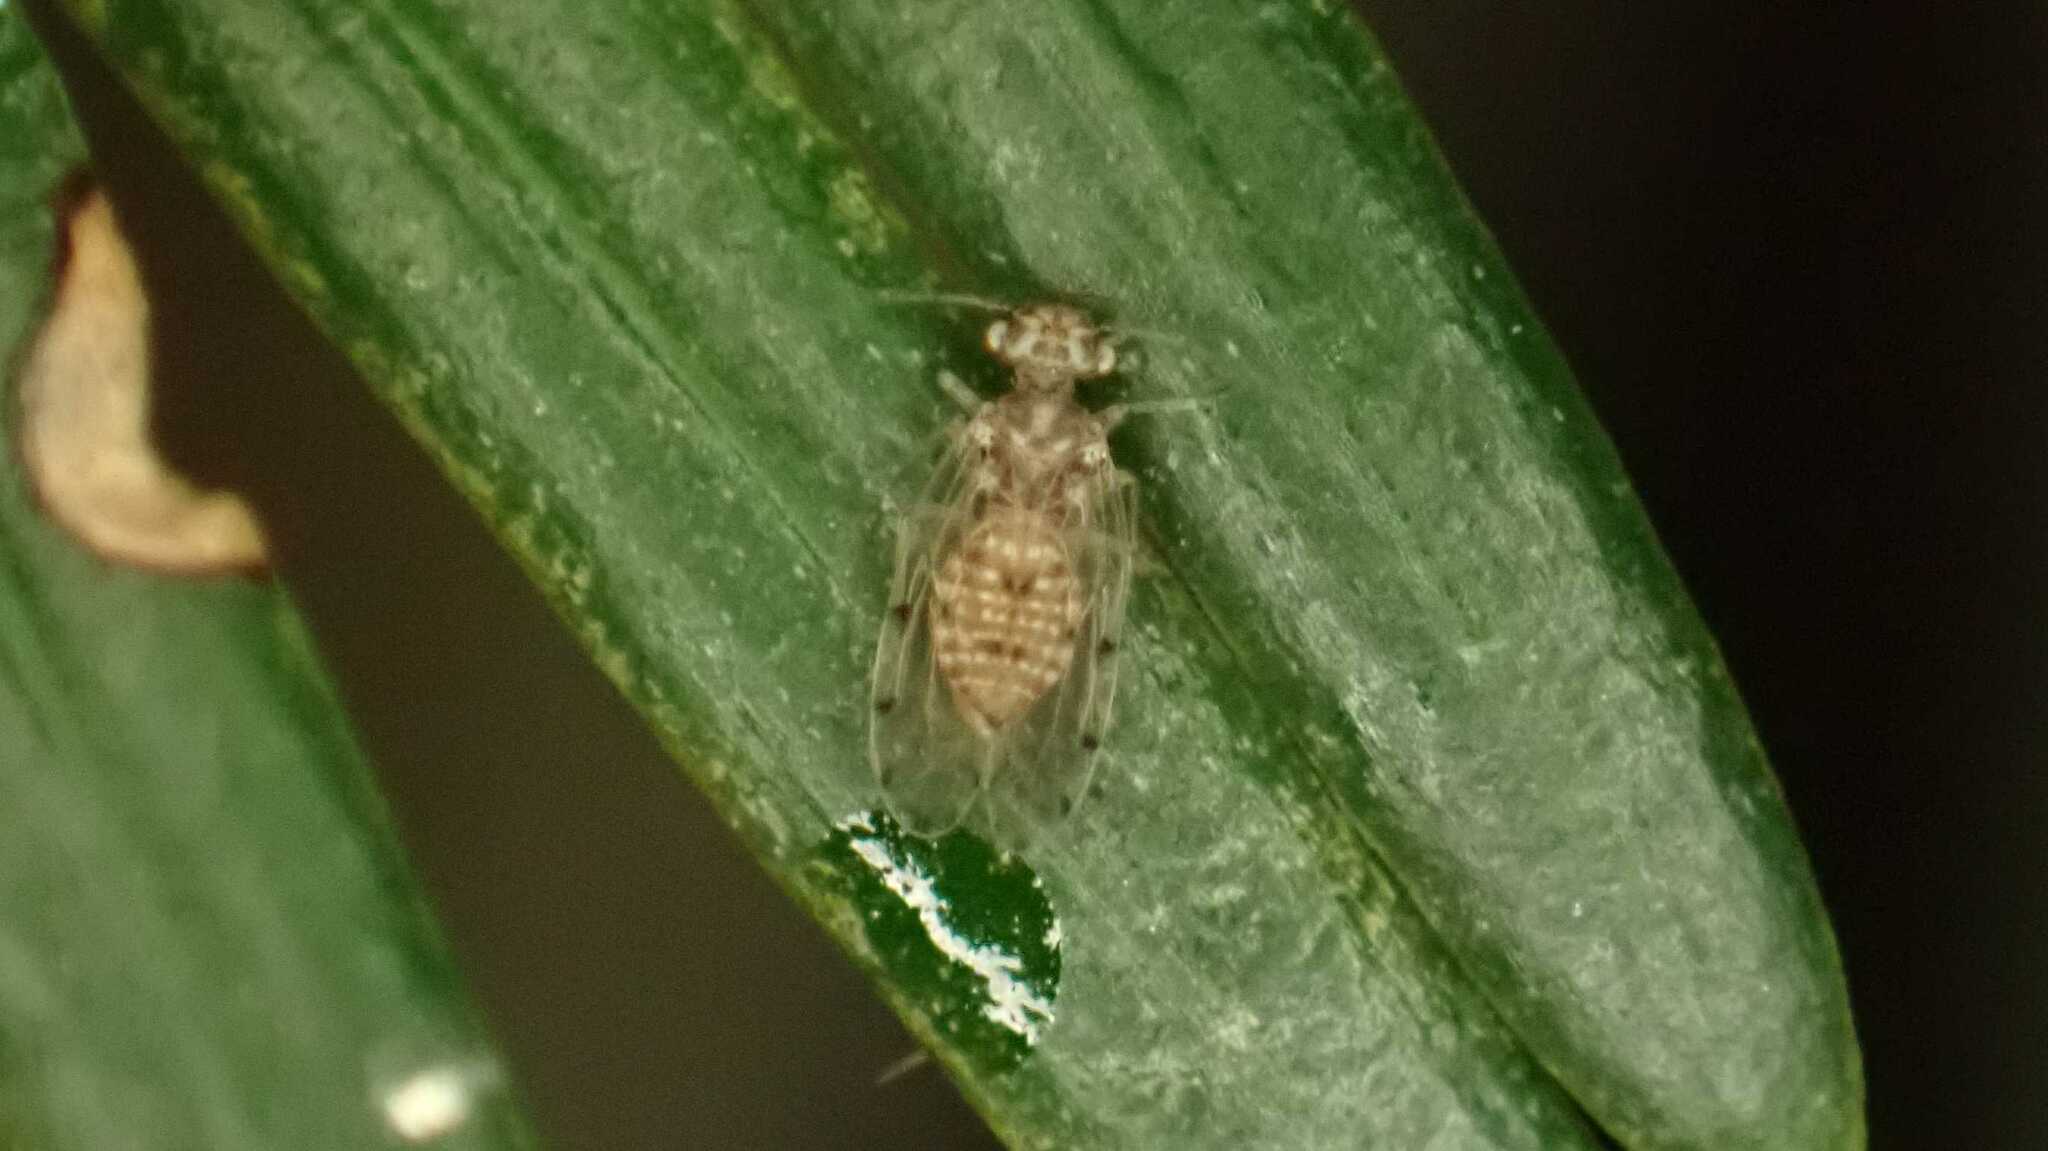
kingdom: Animalia
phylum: Arthropoda
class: Insecta
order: Psocodea
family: Ectopsocidae
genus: Ectopsocus
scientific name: Ectopsocus petersi
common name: Medium-sized bark louse
